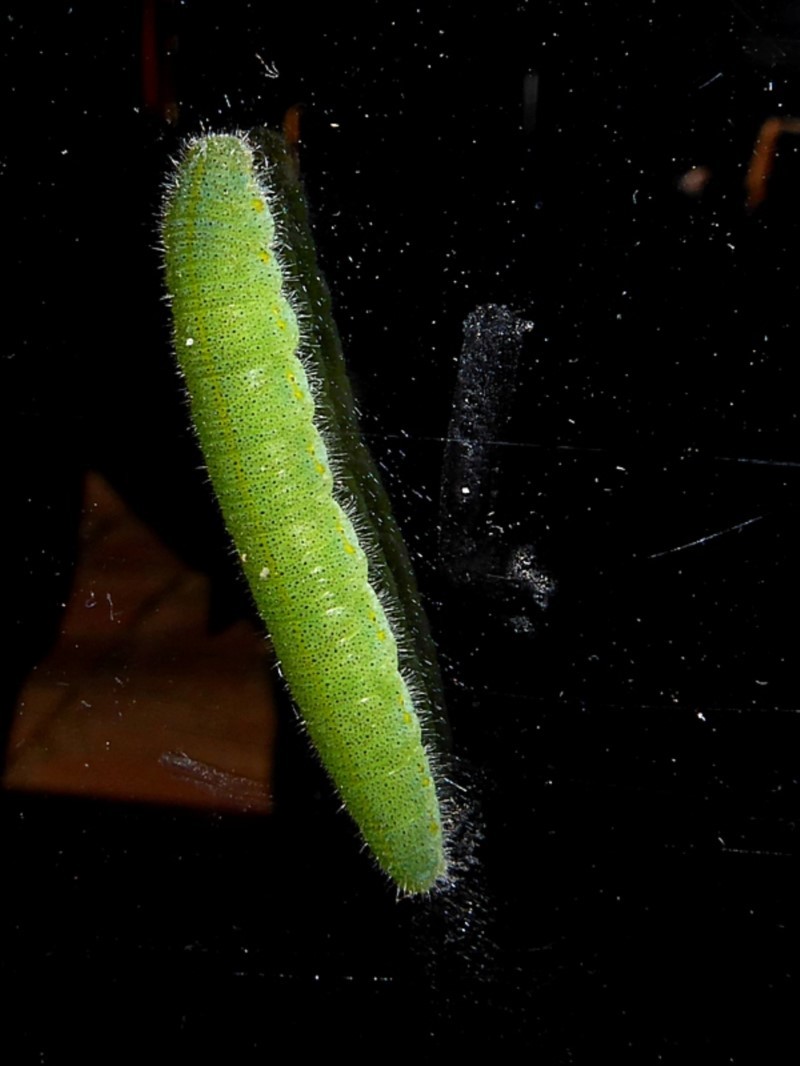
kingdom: Animalia
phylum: Arthropoda
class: Insecta
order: Lepidoptera
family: Pieridae
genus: Pieris
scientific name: Pieris rapae
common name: Small white
